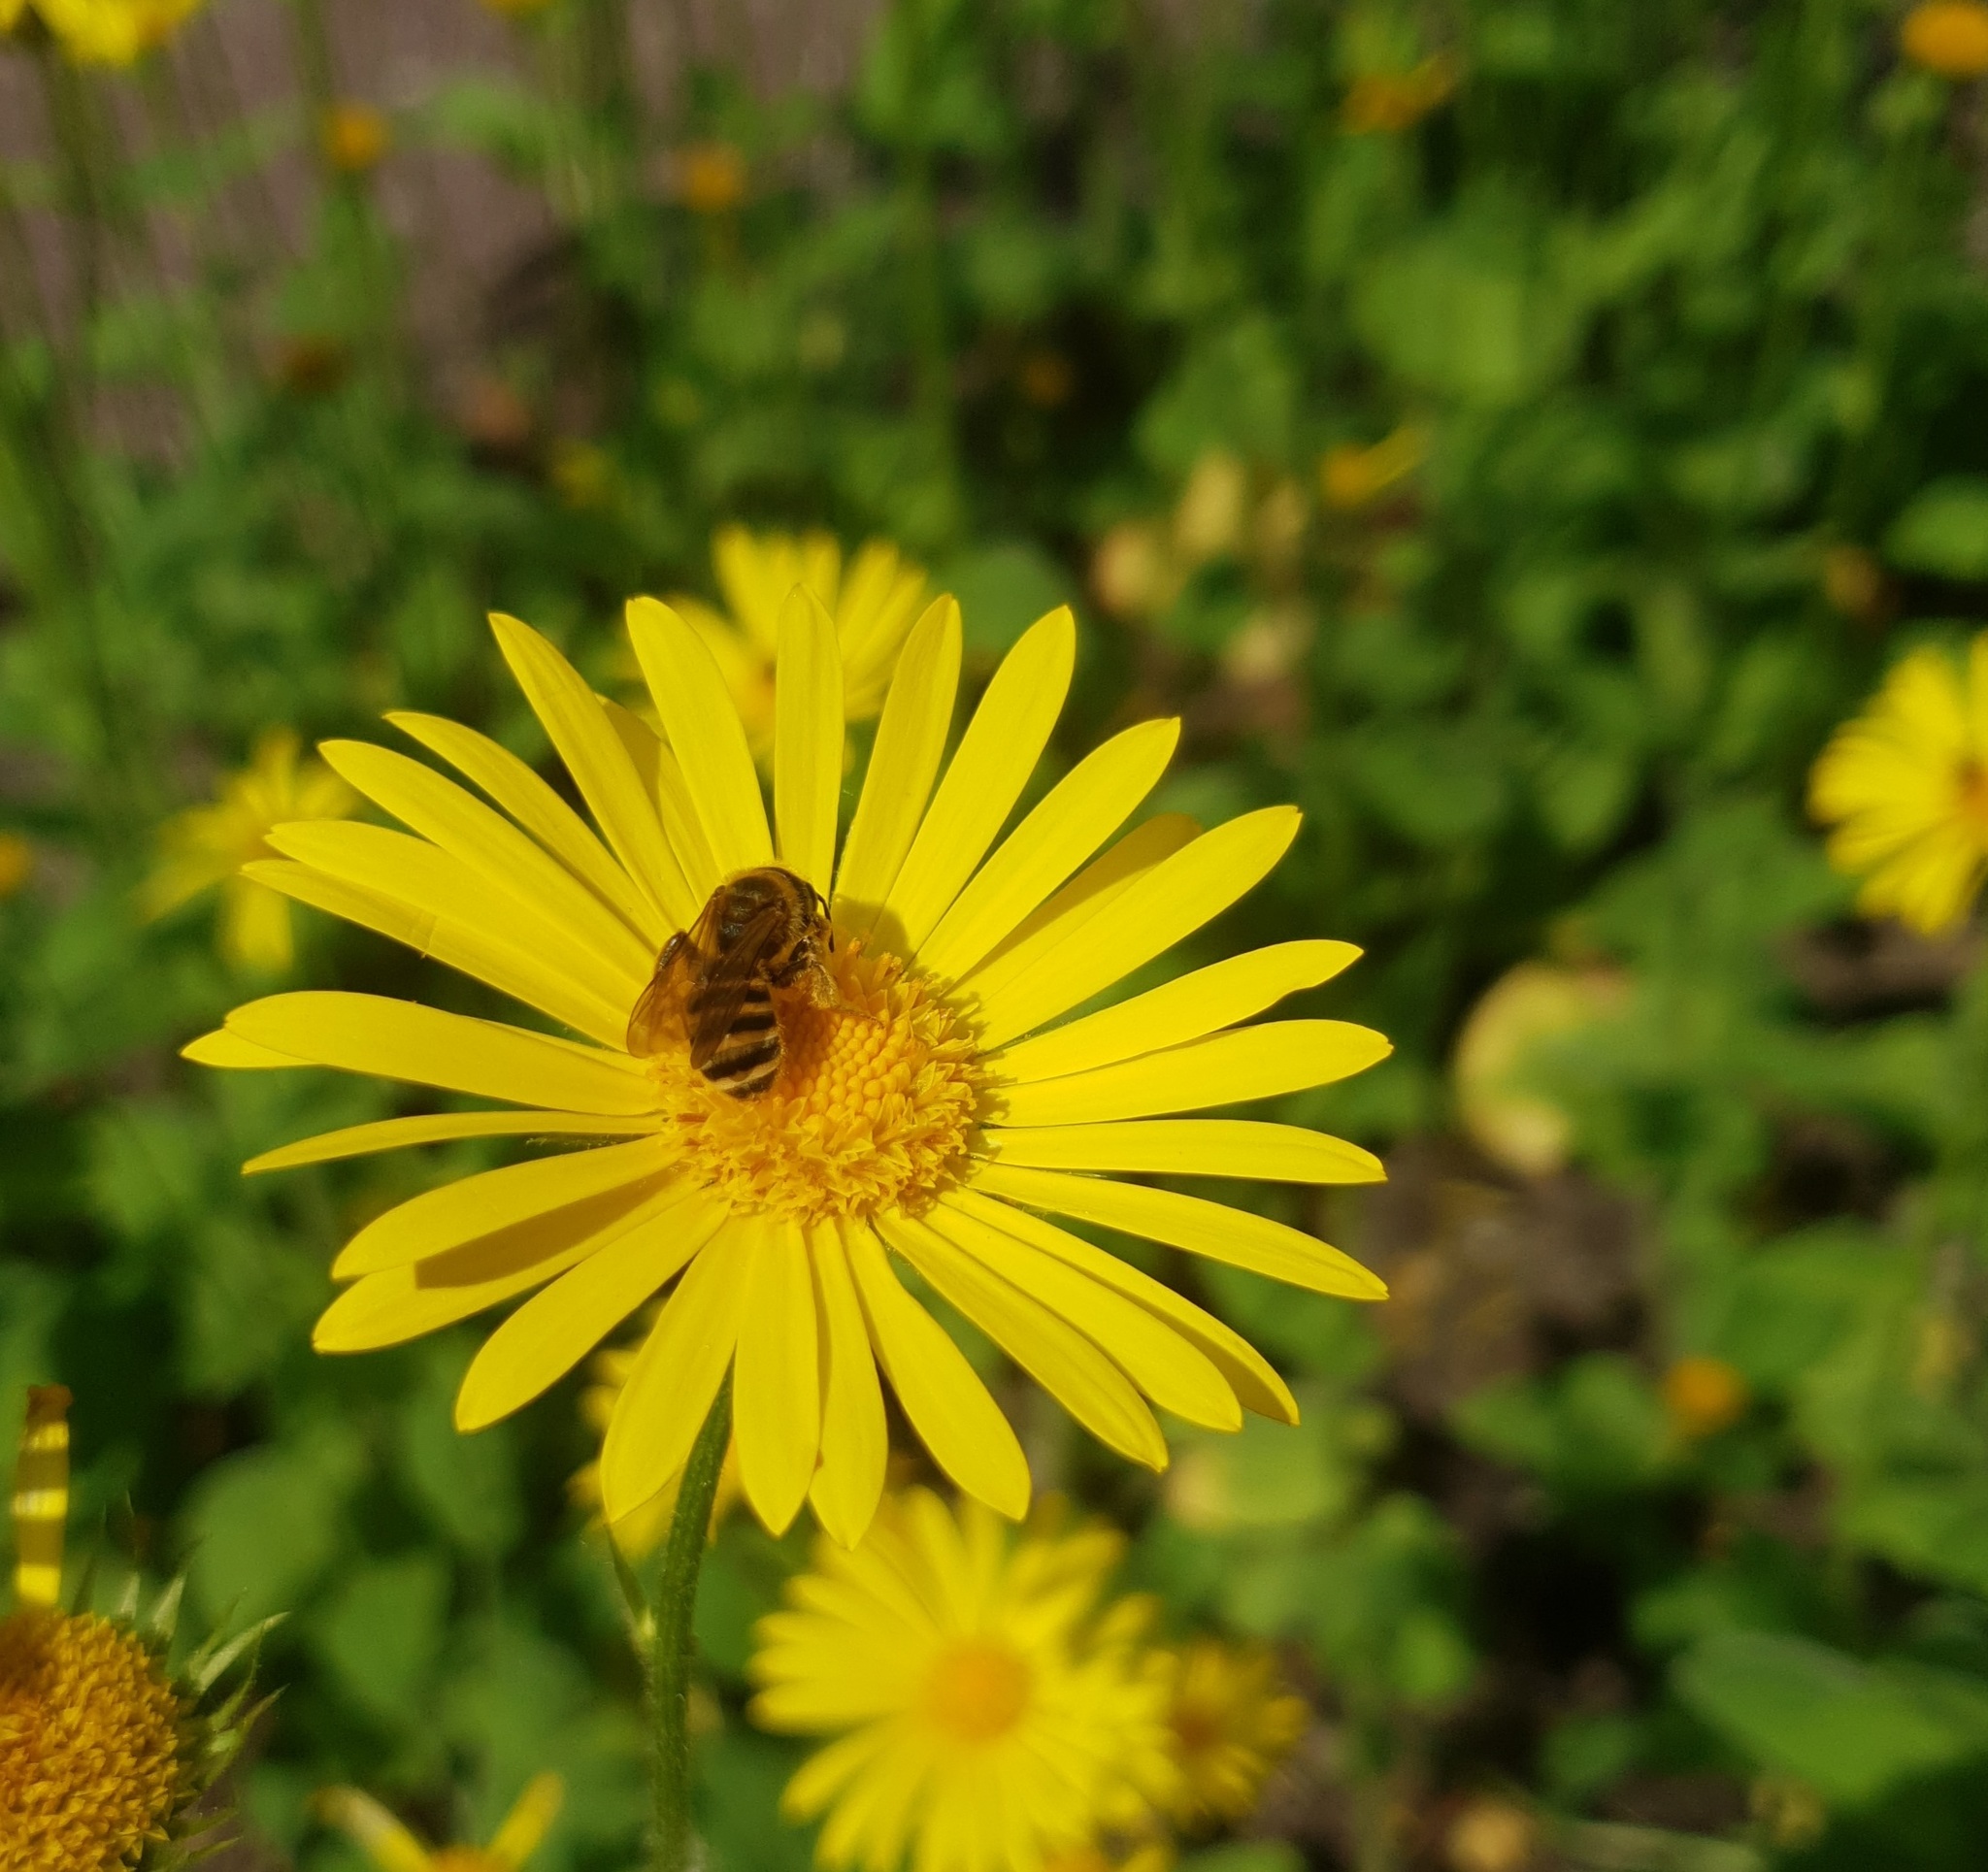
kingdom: Animalia
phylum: Arthropoda
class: Insecta
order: Hymenoptera
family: Halictidae
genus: Halictus
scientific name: Halictus scabiosae
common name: Great banded furrow bee
